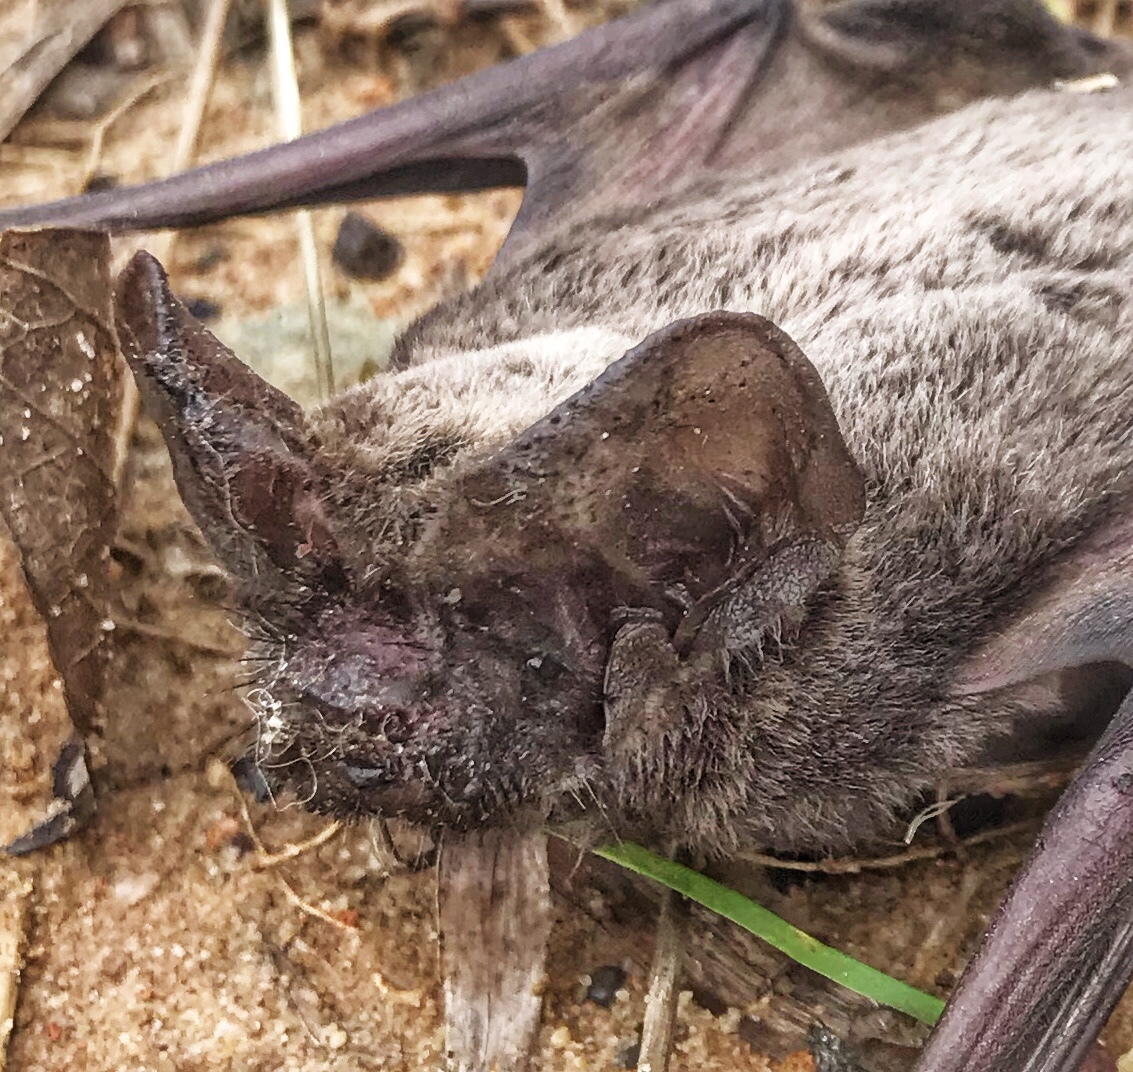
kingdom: Animalia
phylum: Chordata
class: Mammalia
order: Chiroptera
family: Molossidae
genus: Tadarida
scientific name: Tadarida aegyptiaca
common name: Egyptian free-tailed bat
